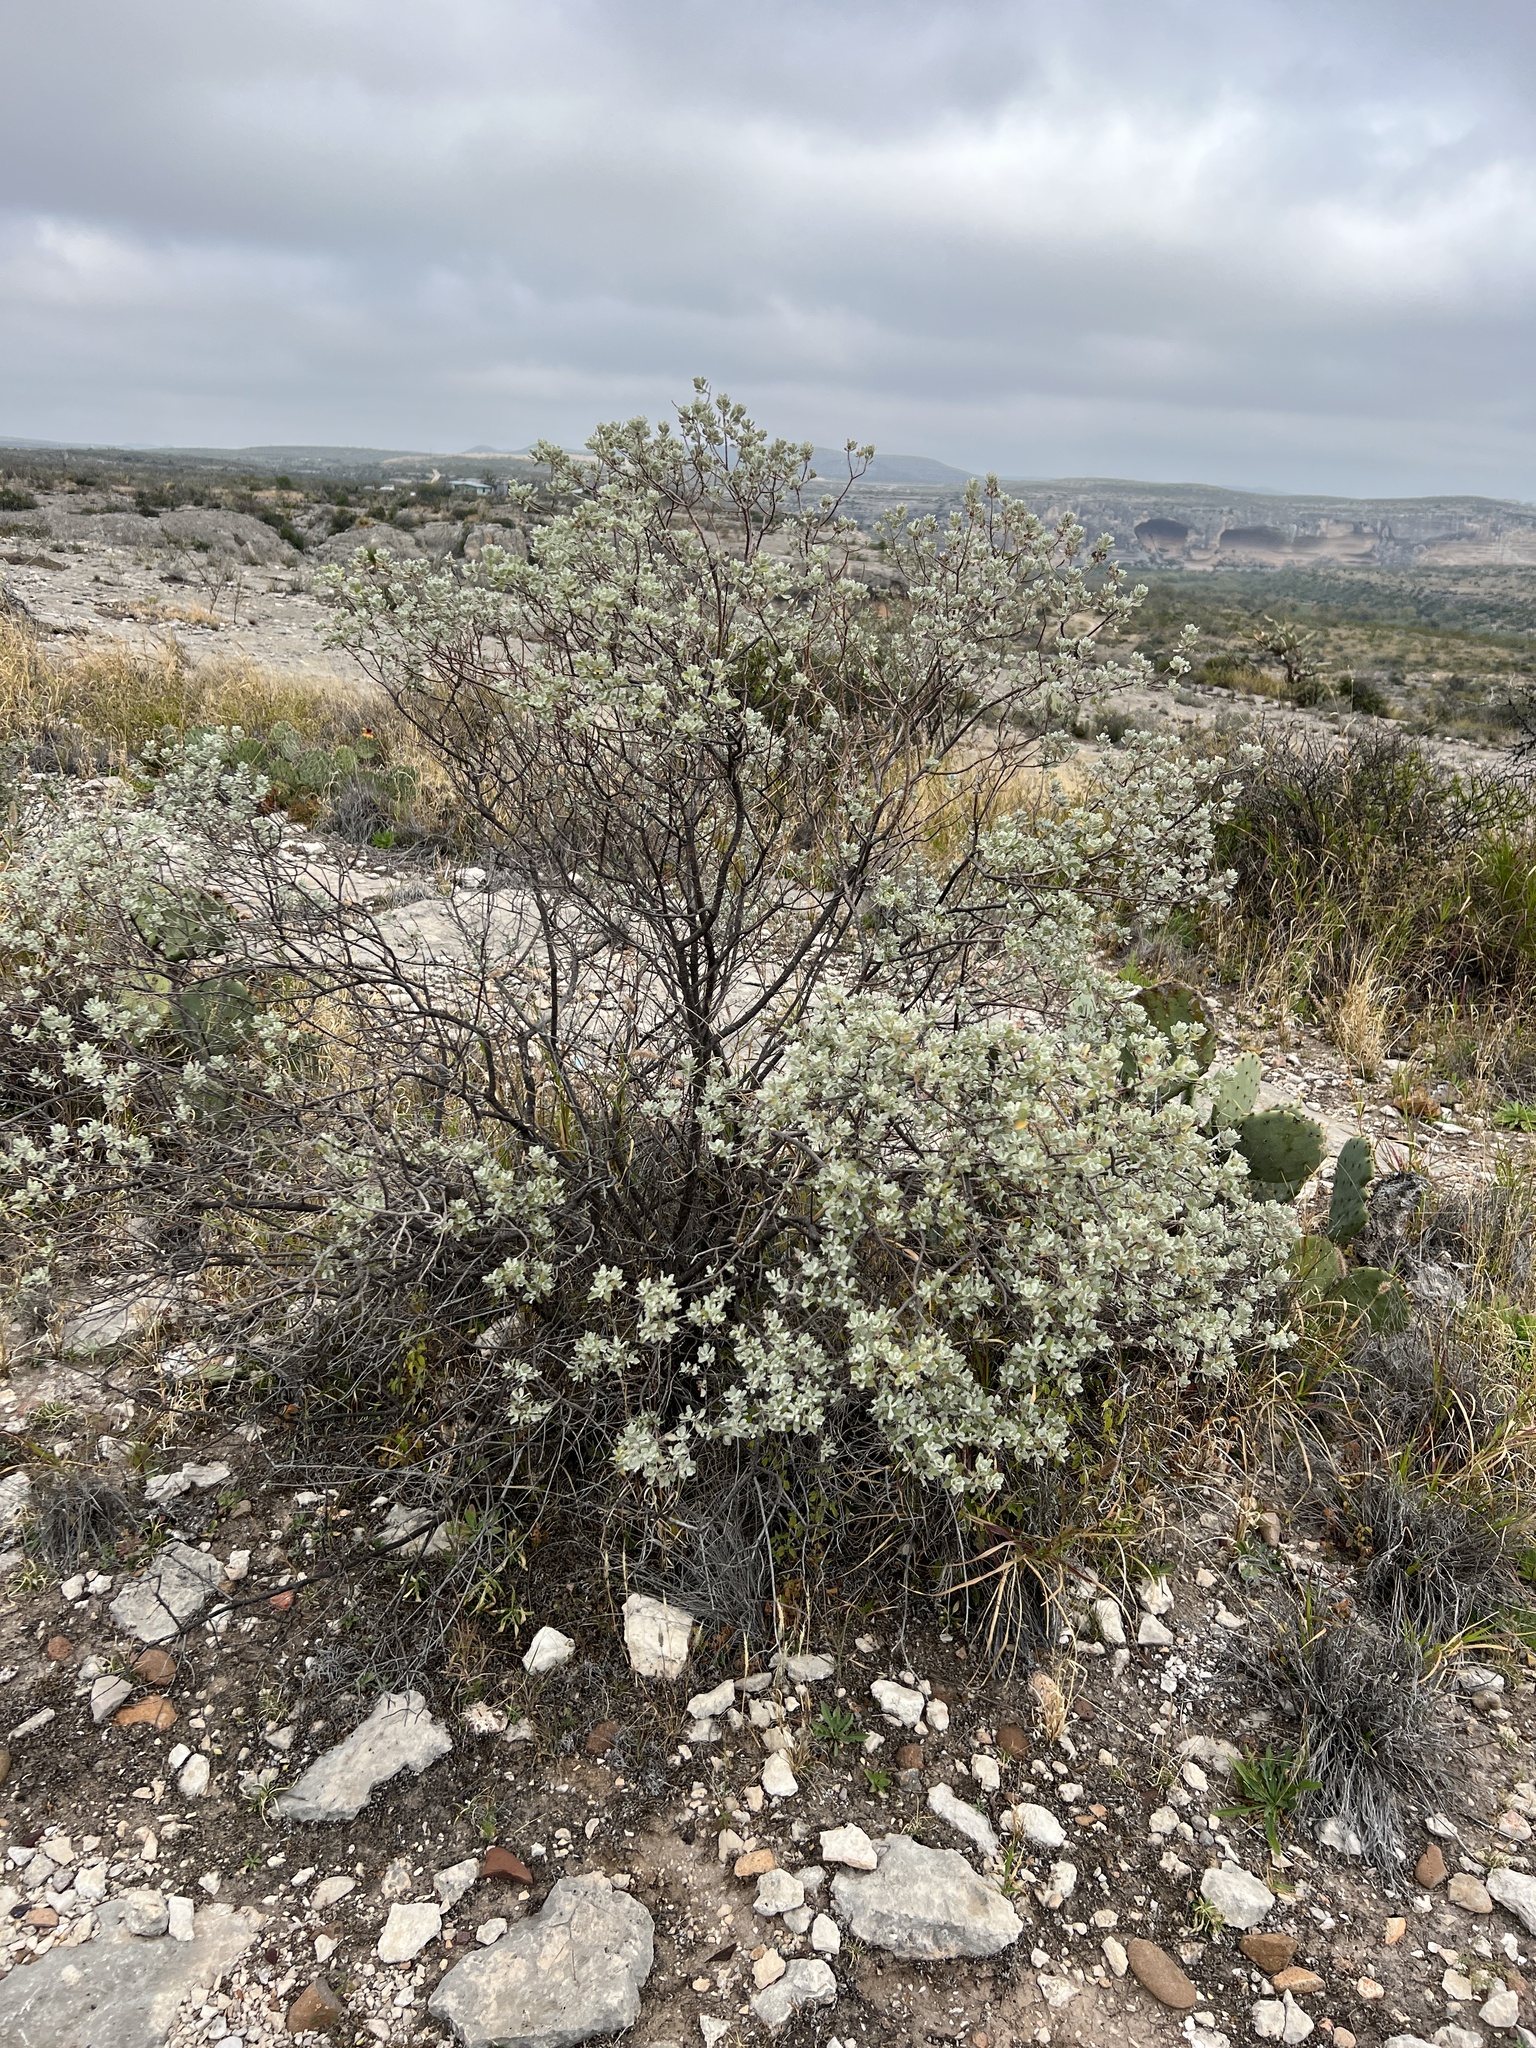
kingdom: Plantae
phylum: Tracheophyta
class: Magnoliopsida
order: Lamiales
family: Scrophulariaceae
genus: Leucophyllum
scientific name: Leucophyllum frutescens
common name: Texas silverleaf
